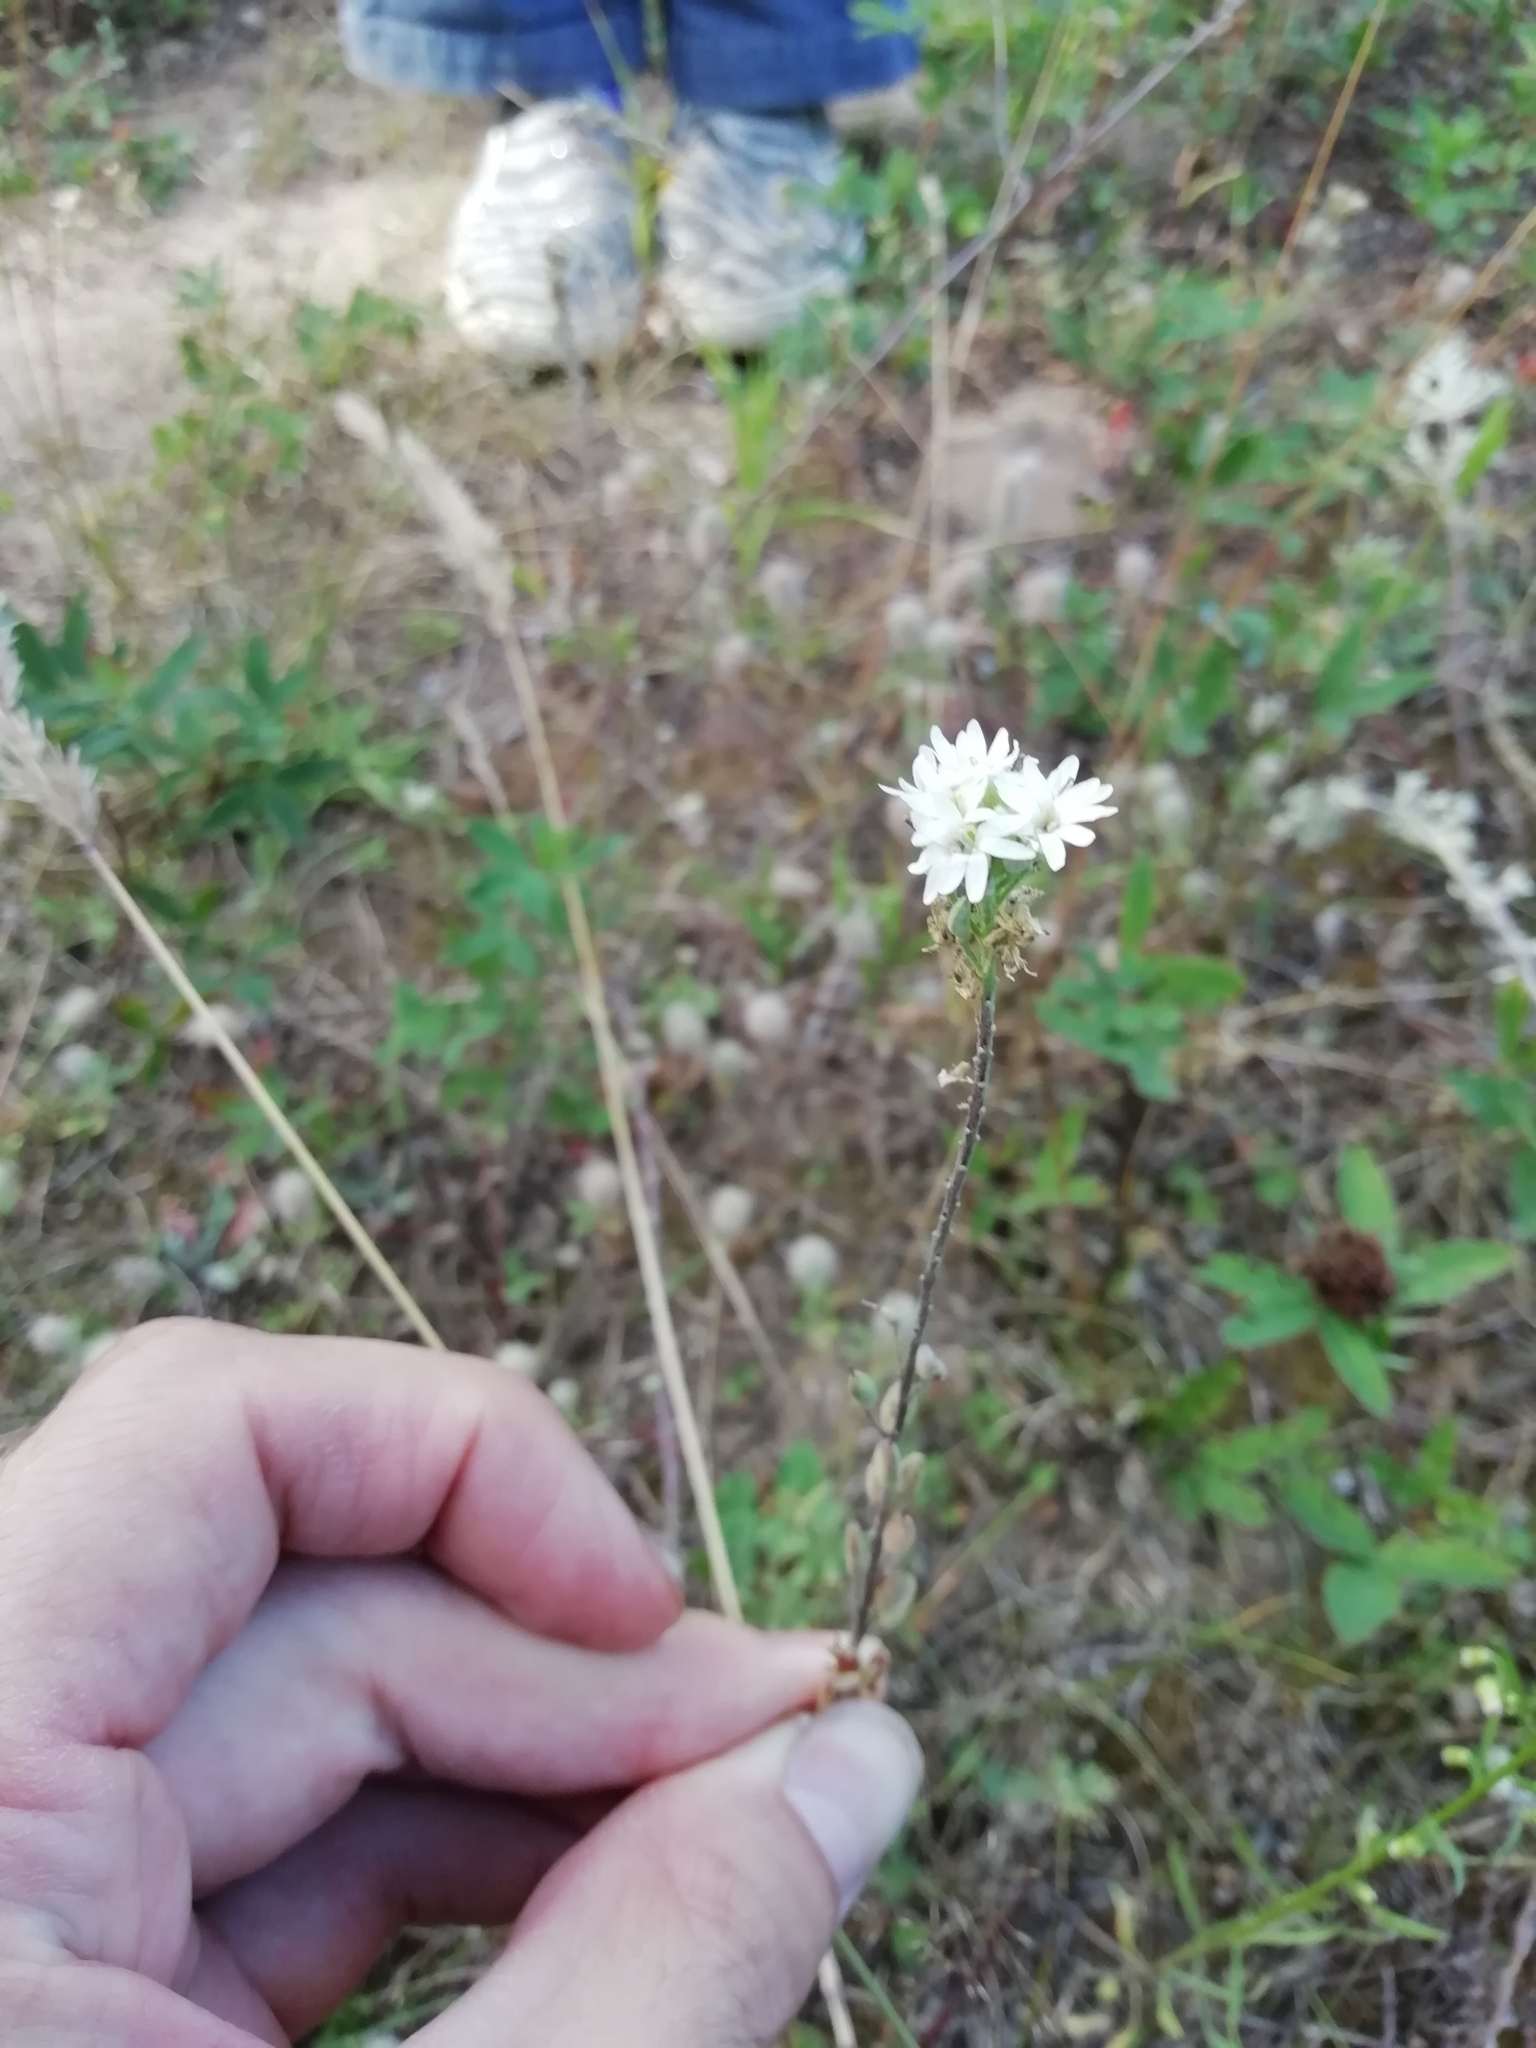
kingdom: Plantae
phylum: Tracheophyta
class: Magnoliopsida
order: Brassicales
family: Brassicaceae
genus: Berteroa
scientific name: Berteroa incana
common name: Hoary alison
